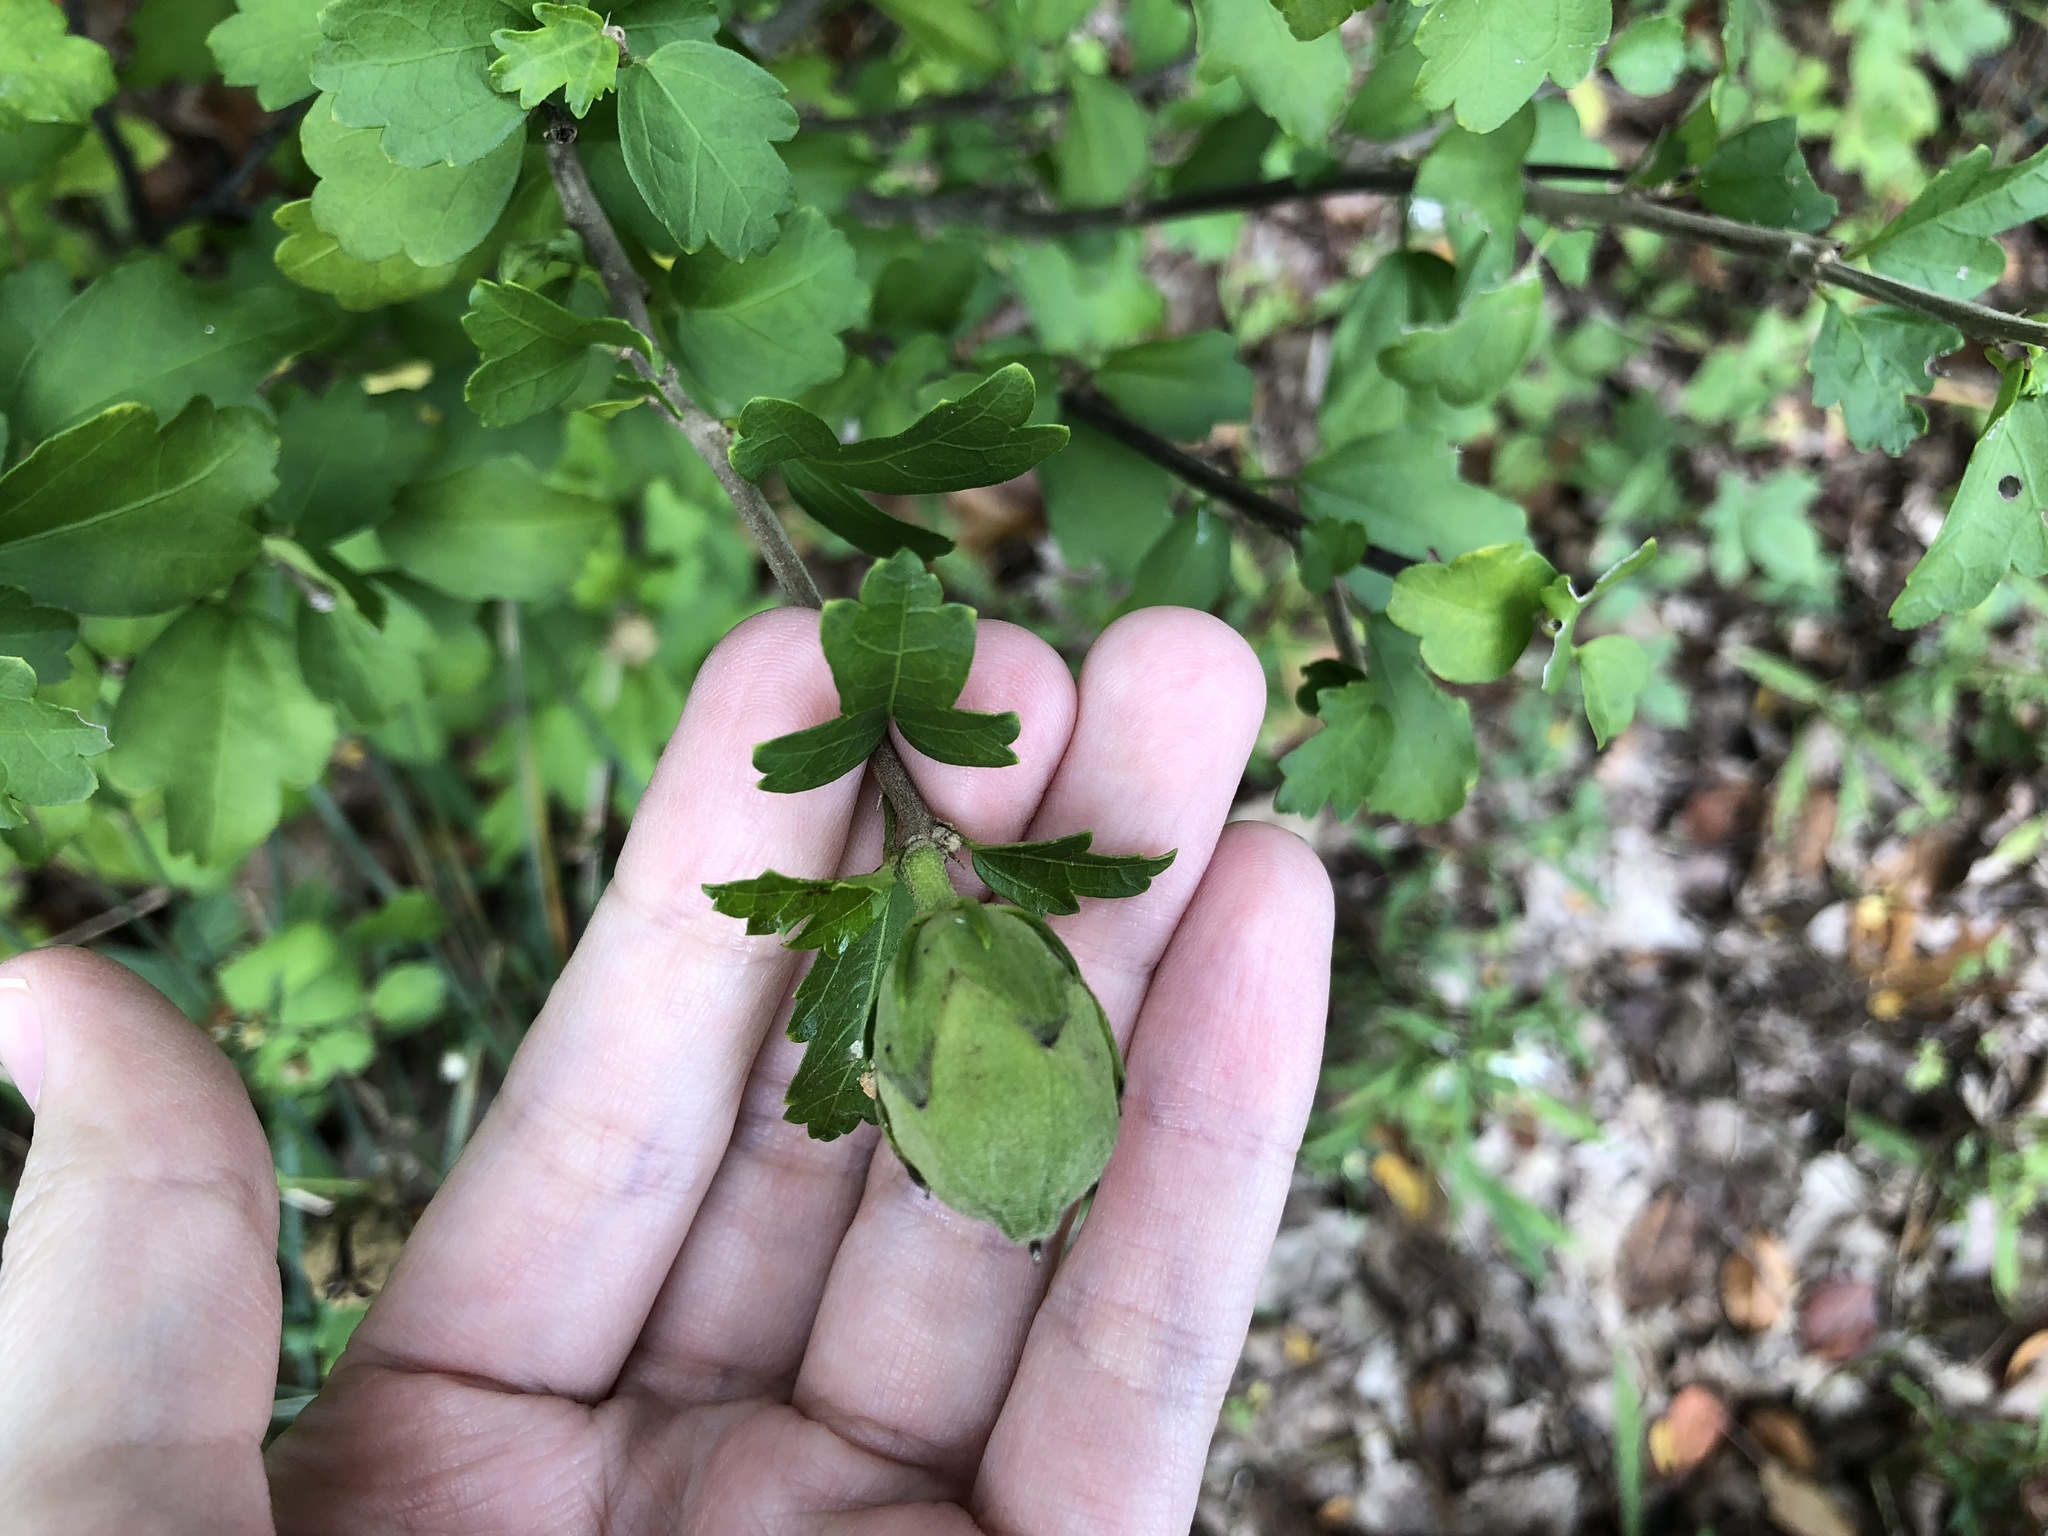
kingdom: Plantae
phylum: Tracheophyta
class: Magnoliopsida
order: Malvales
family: Malvaceae
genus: Hibiscus
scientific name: Hibiscus syriacus
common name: Syrian ketmia
